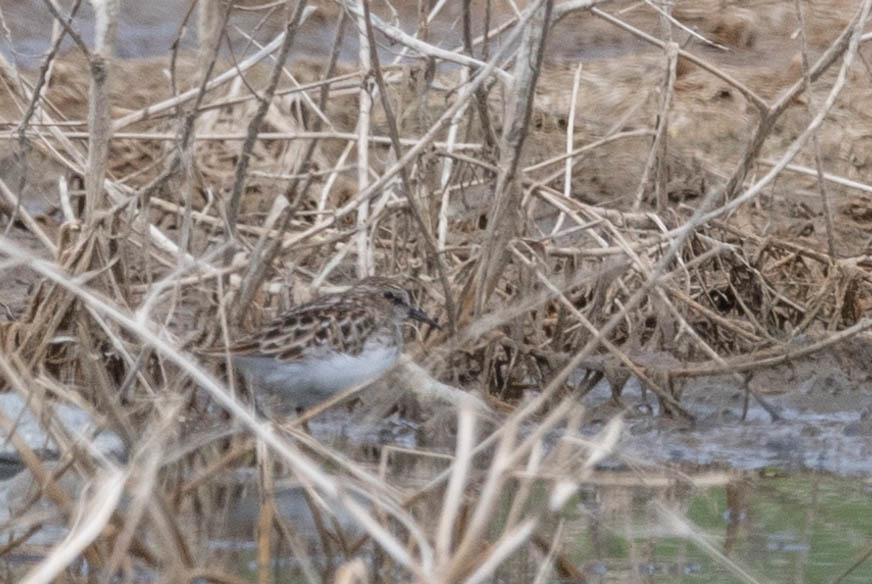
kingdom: Animalia
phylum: Chordata
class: Aves
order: Charadriiformes
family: Scolopacidae
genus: Calidris
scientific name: Calidris minutilla
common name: Least sandpiper
